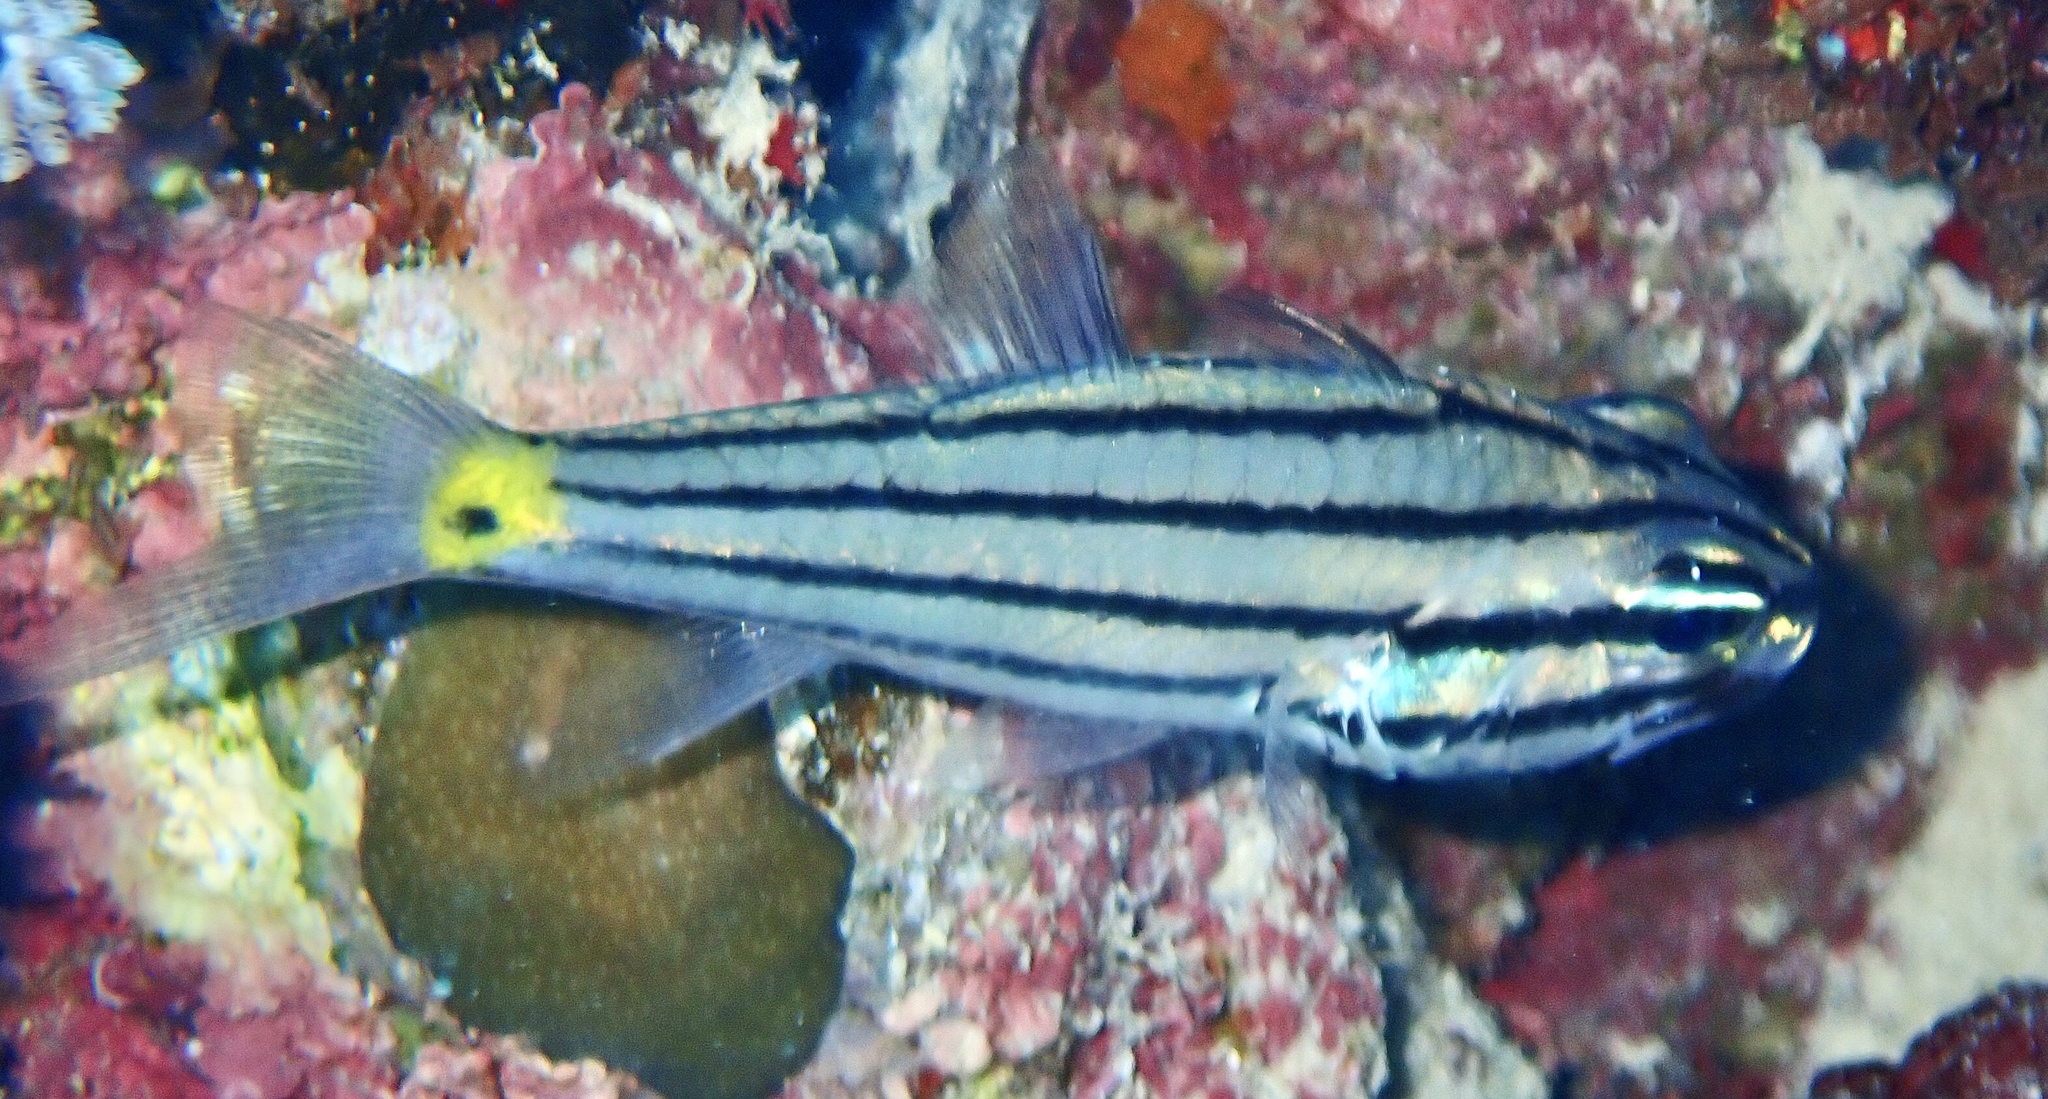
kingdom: Animalia
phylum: Chordata
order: Perciformes
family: Apogonidae
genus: Cheilodipterus
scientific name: Cheilodipterus quinquelineatus
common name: Five-lined cardinalfish
